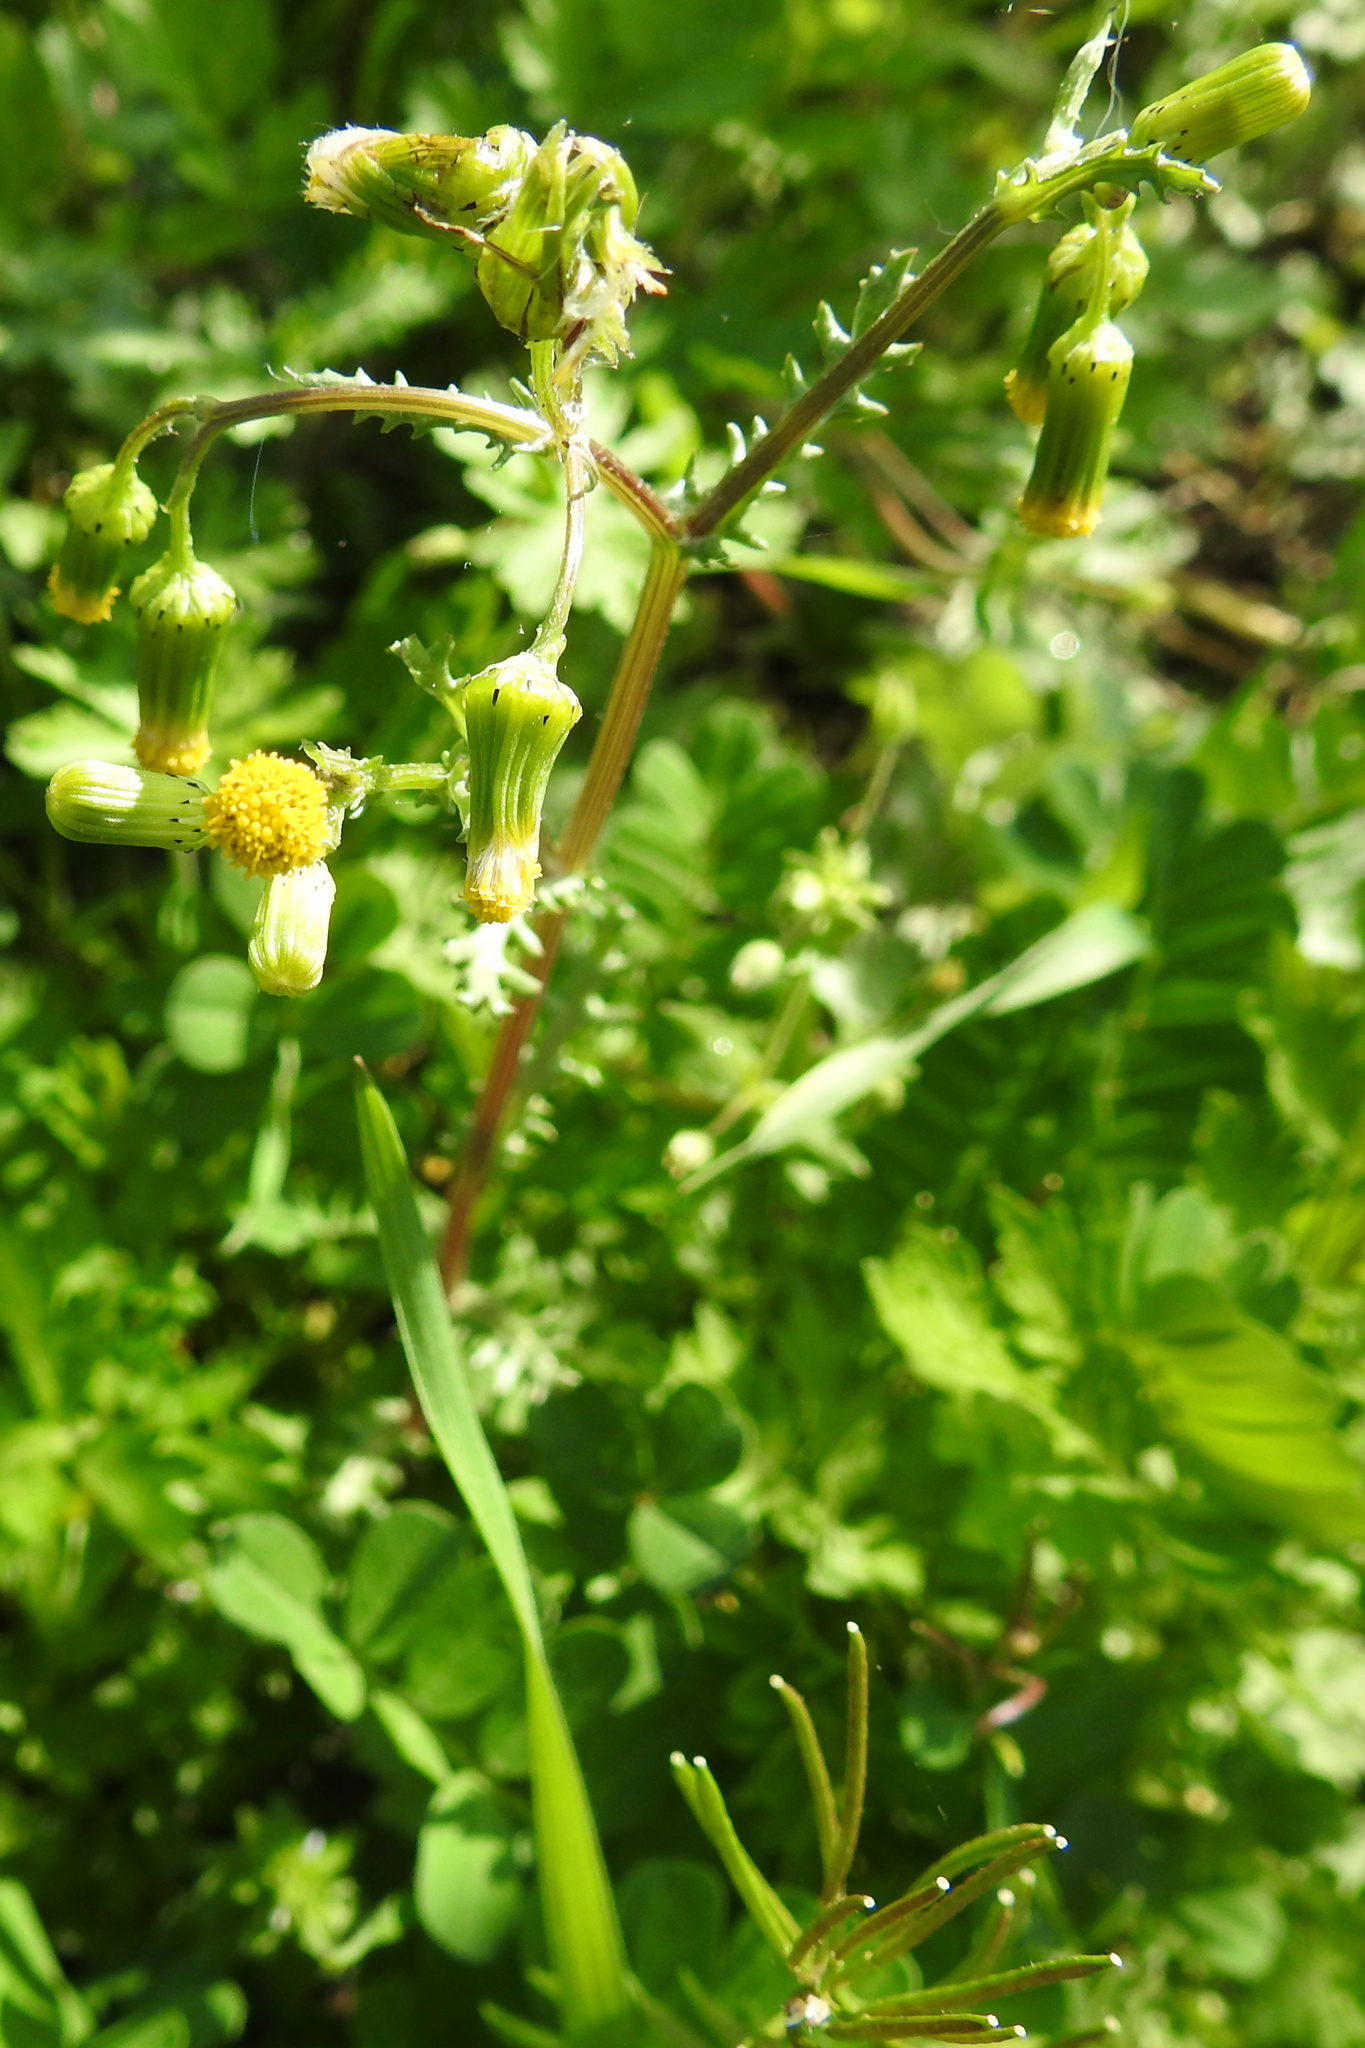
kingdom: Plantae
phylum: Tracheophyta
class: Magnoliopsida
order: Asterales
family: Asteraceae
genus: Senecio
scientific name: Senecio vulgaris
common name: Old-man-in-the-spring
